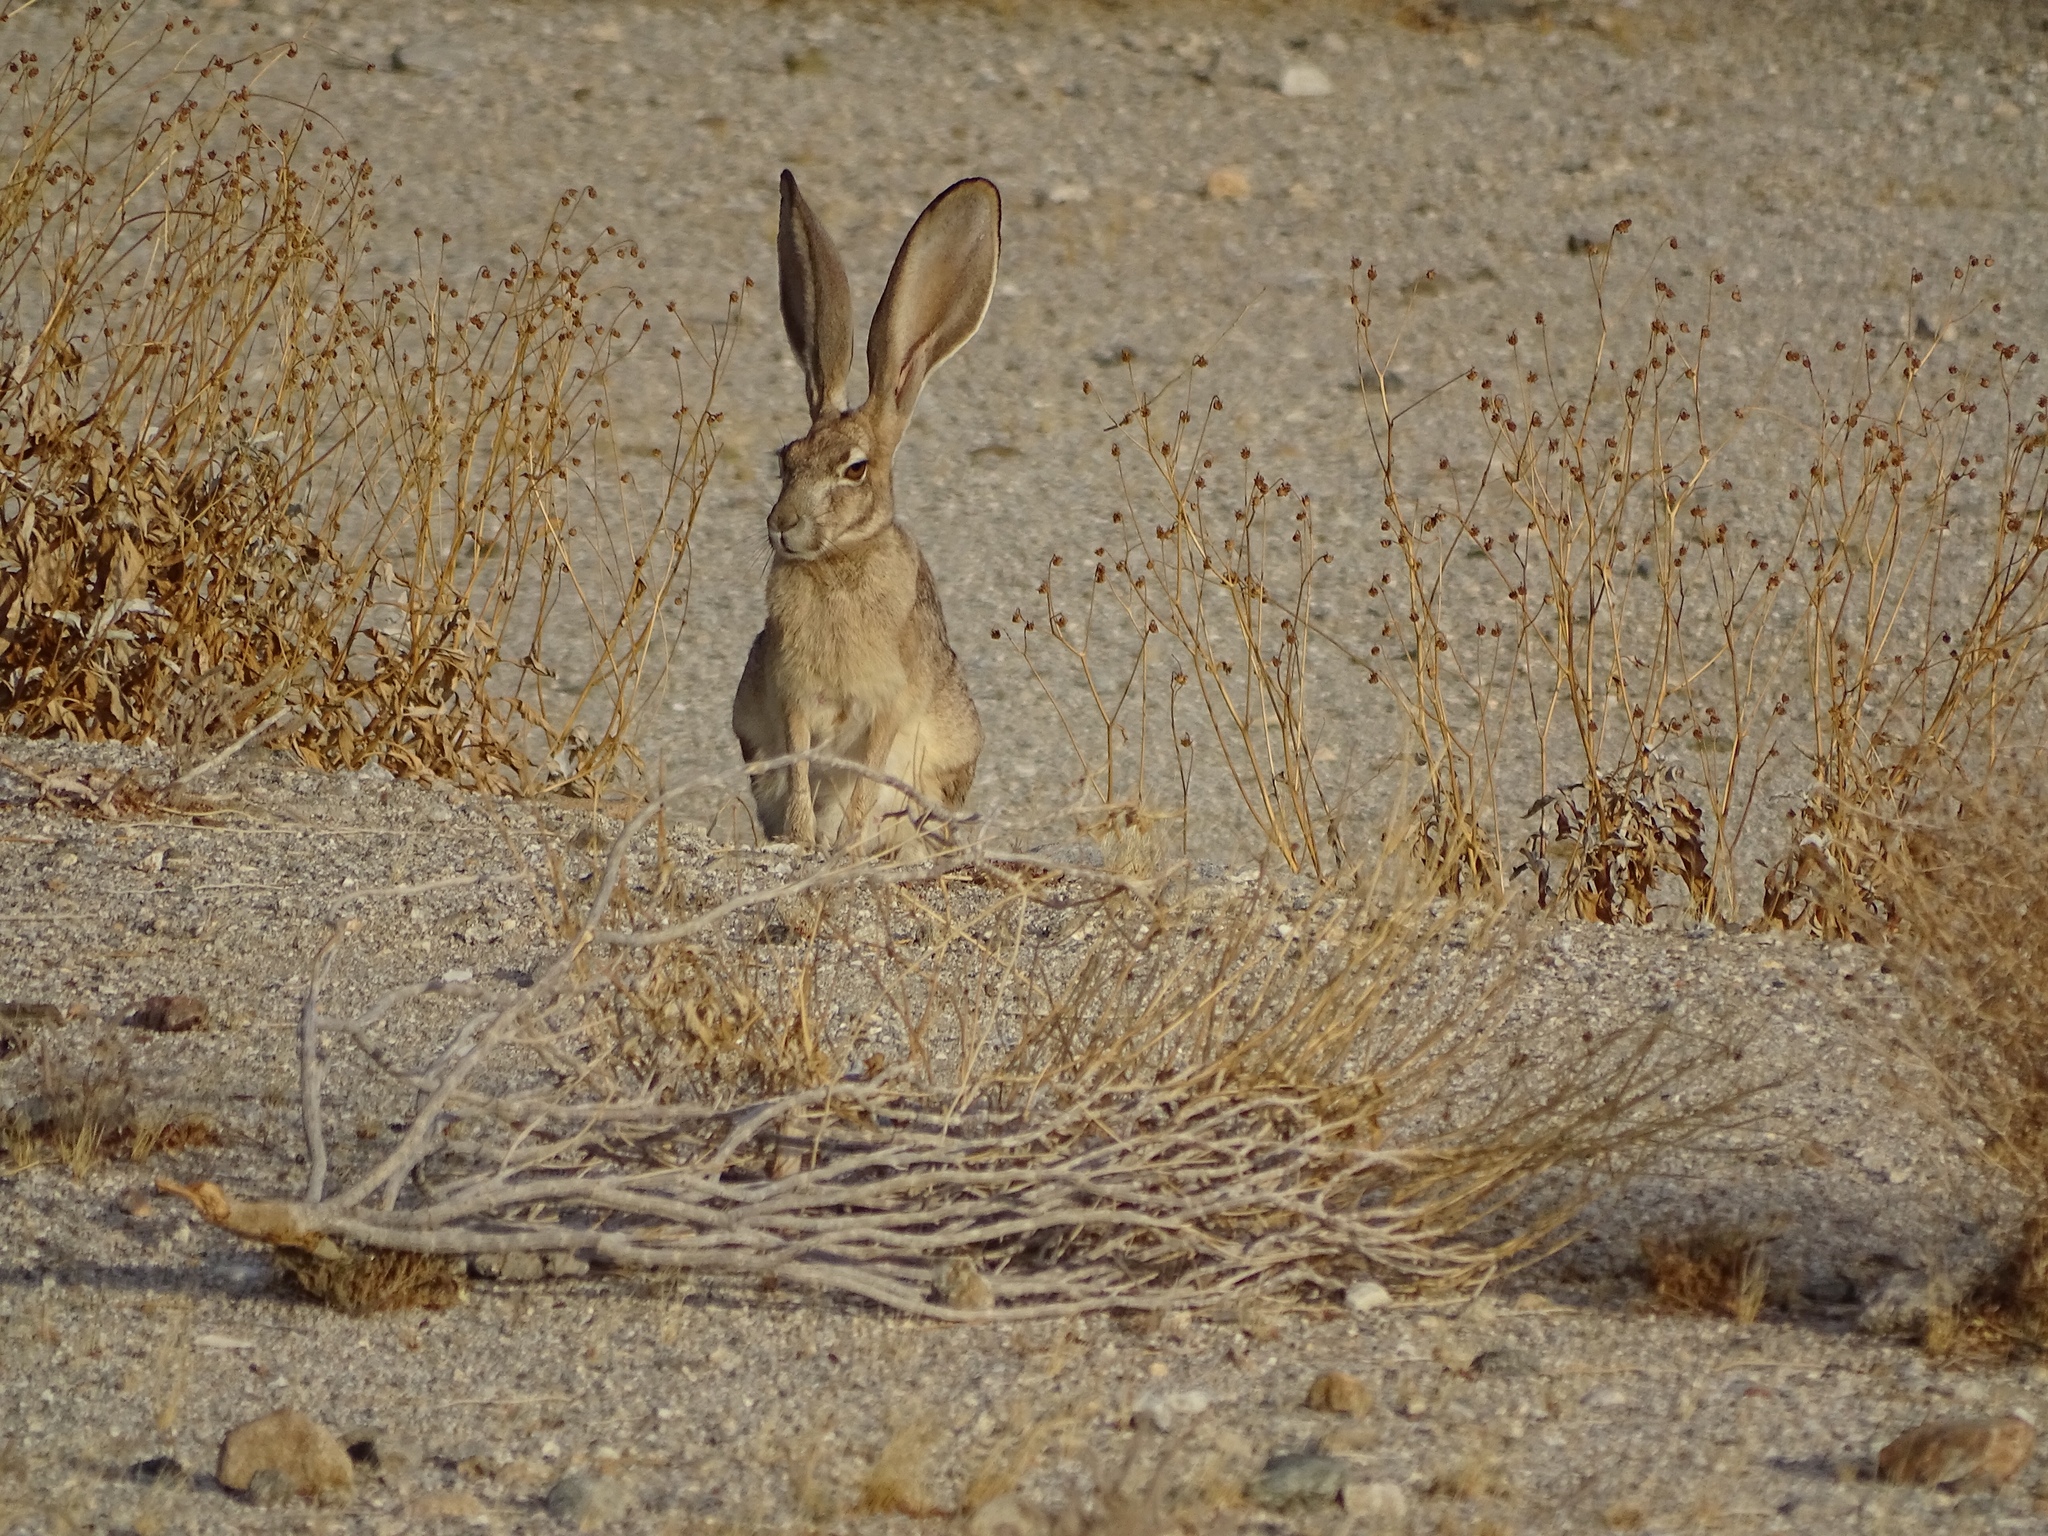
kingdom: Animalia
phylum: Chordata
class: Mammalia
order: Lagomorpha
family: Leporidae
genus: Lepus
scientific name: Lepus californicus
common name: Black-tailed jackrabbit
